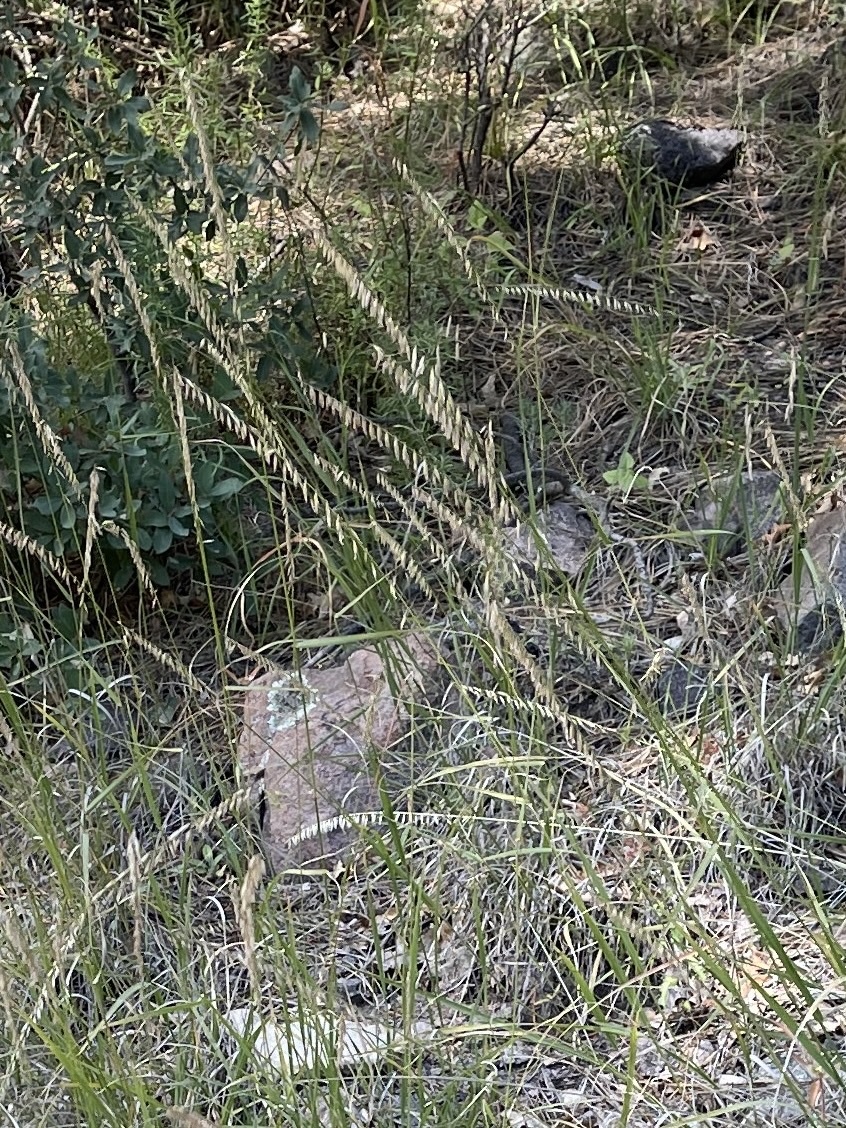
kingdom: Plantae
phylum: Tracheophyta
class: Liliopsida
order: Poales
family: Poaceae
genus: Bouteloua
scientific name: Bouteloua curtipendula
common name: Side-oats grama
